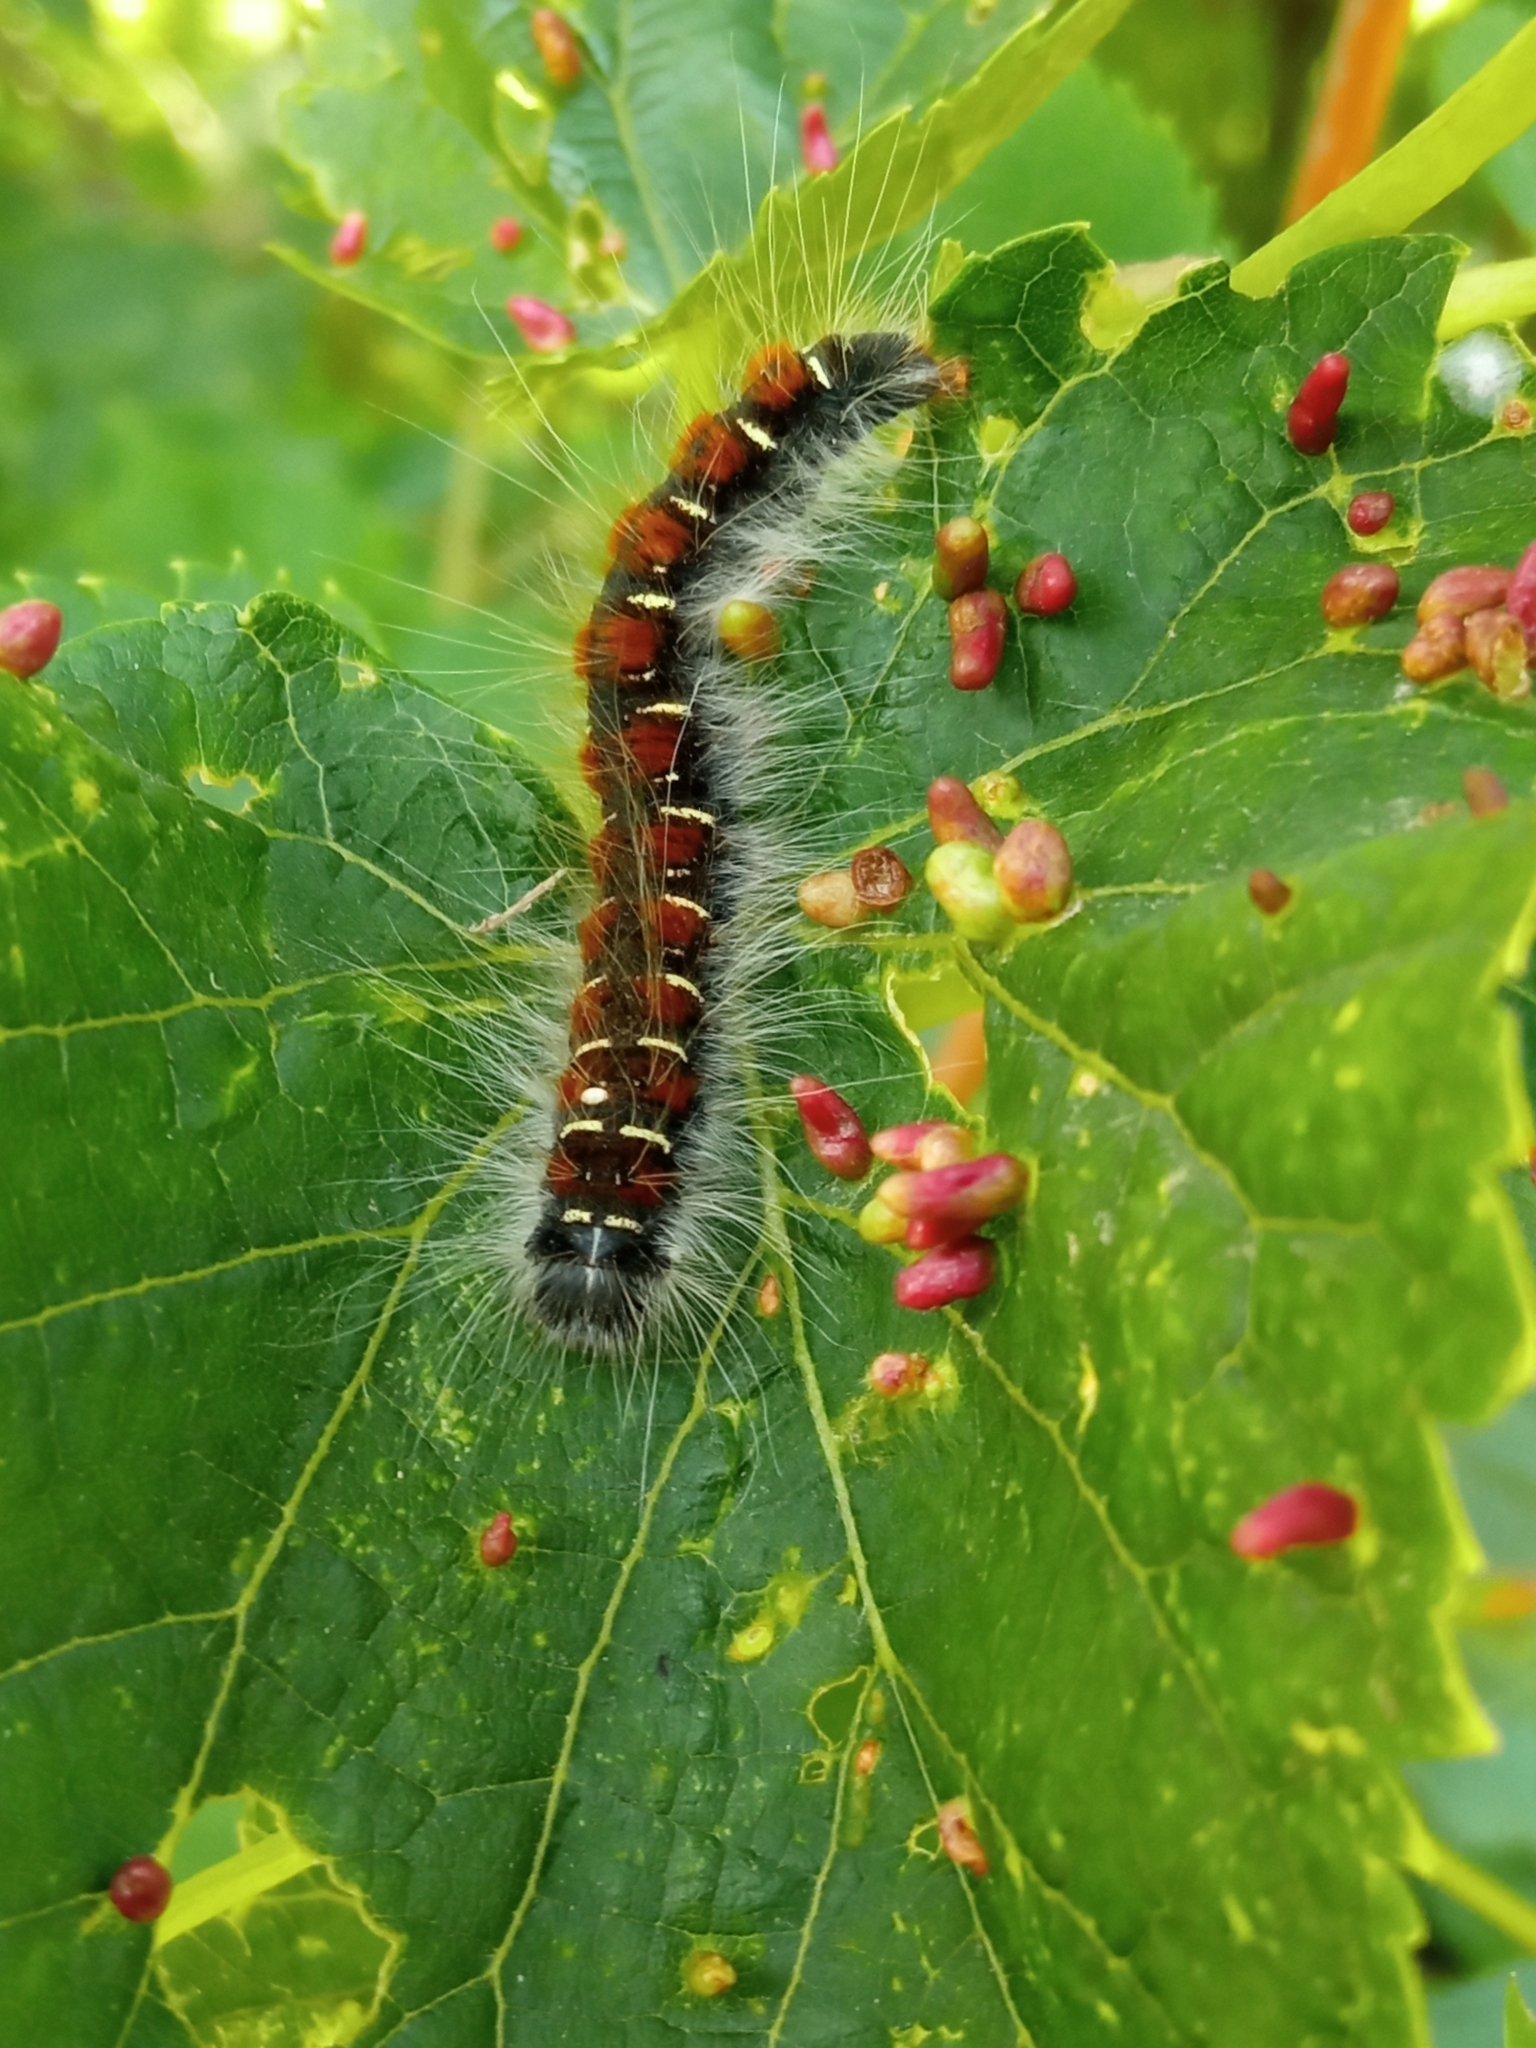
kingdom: Animalia
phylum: Arthropoda
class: Insecta
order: Lepidoptera
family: Lasiocampidae
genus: Eriogaster
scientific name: Eriogaster lanestris
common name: Small eggar
